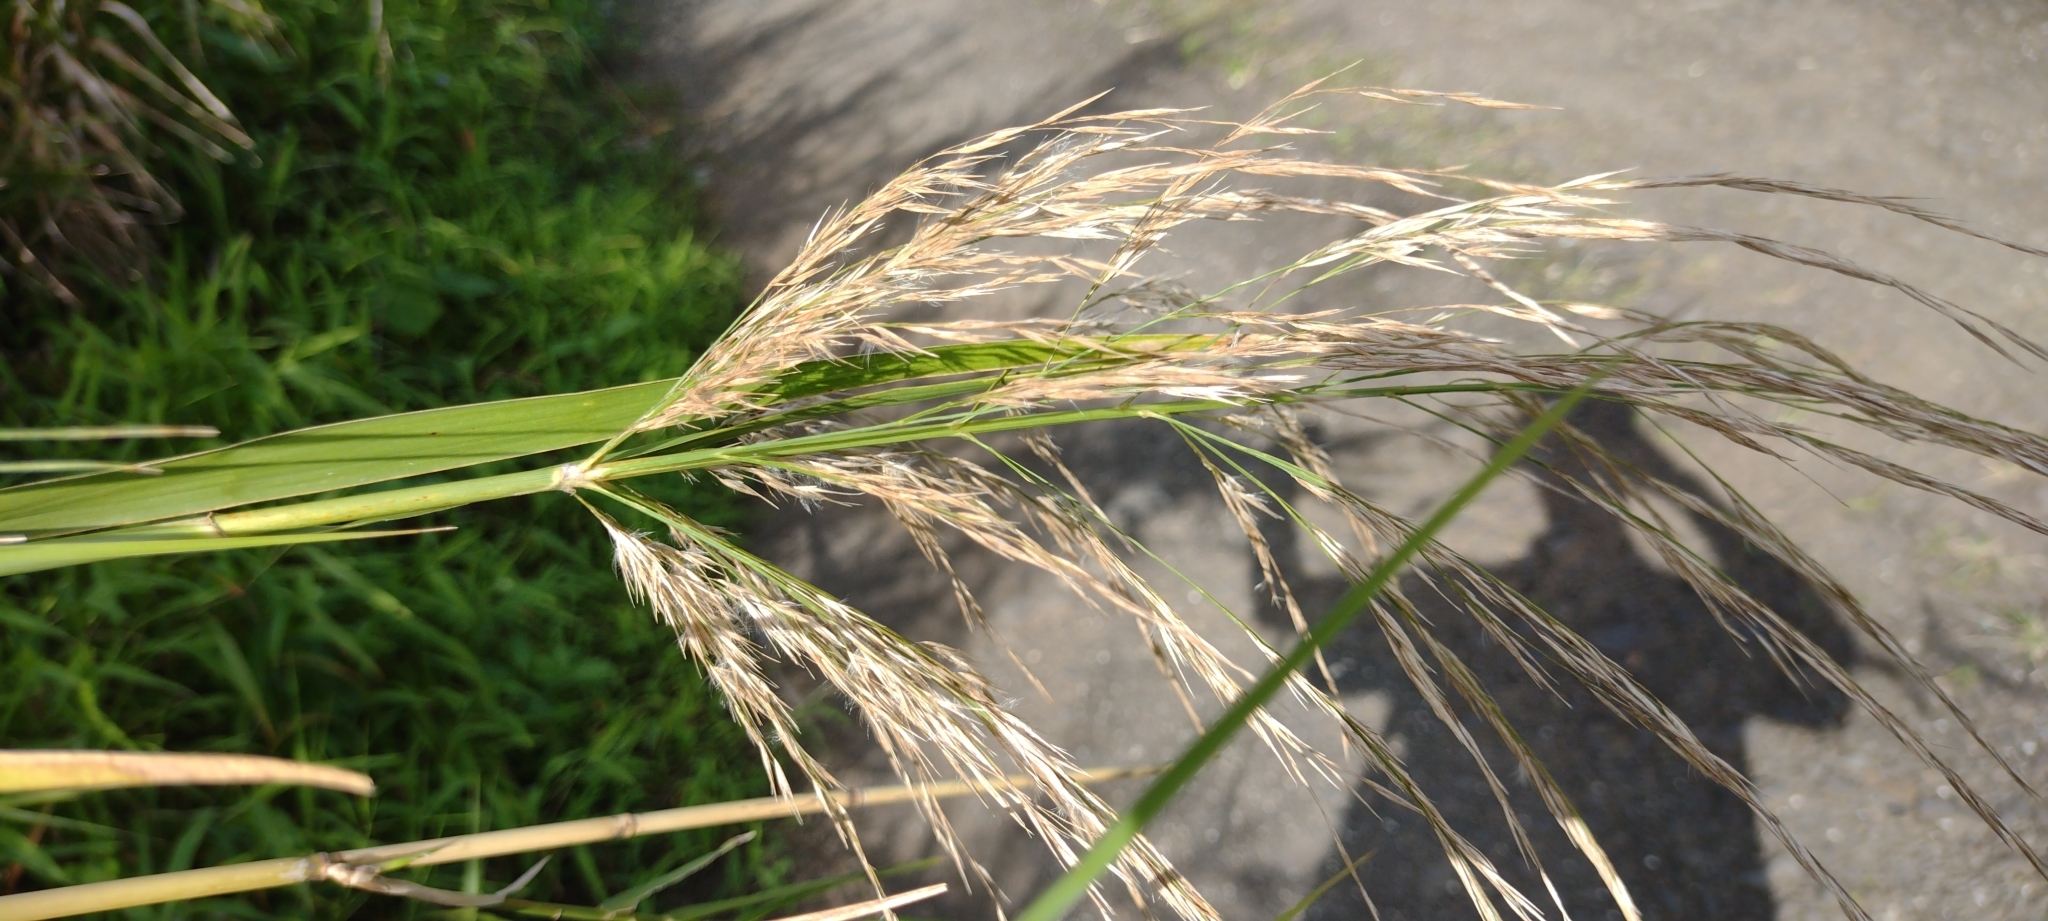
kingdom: Plantae
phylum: Tracheophyta
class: Liliopsida
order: Poales
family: Poaceae
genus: Phragmites
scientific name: Phragmites karka
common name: Tropical reed
